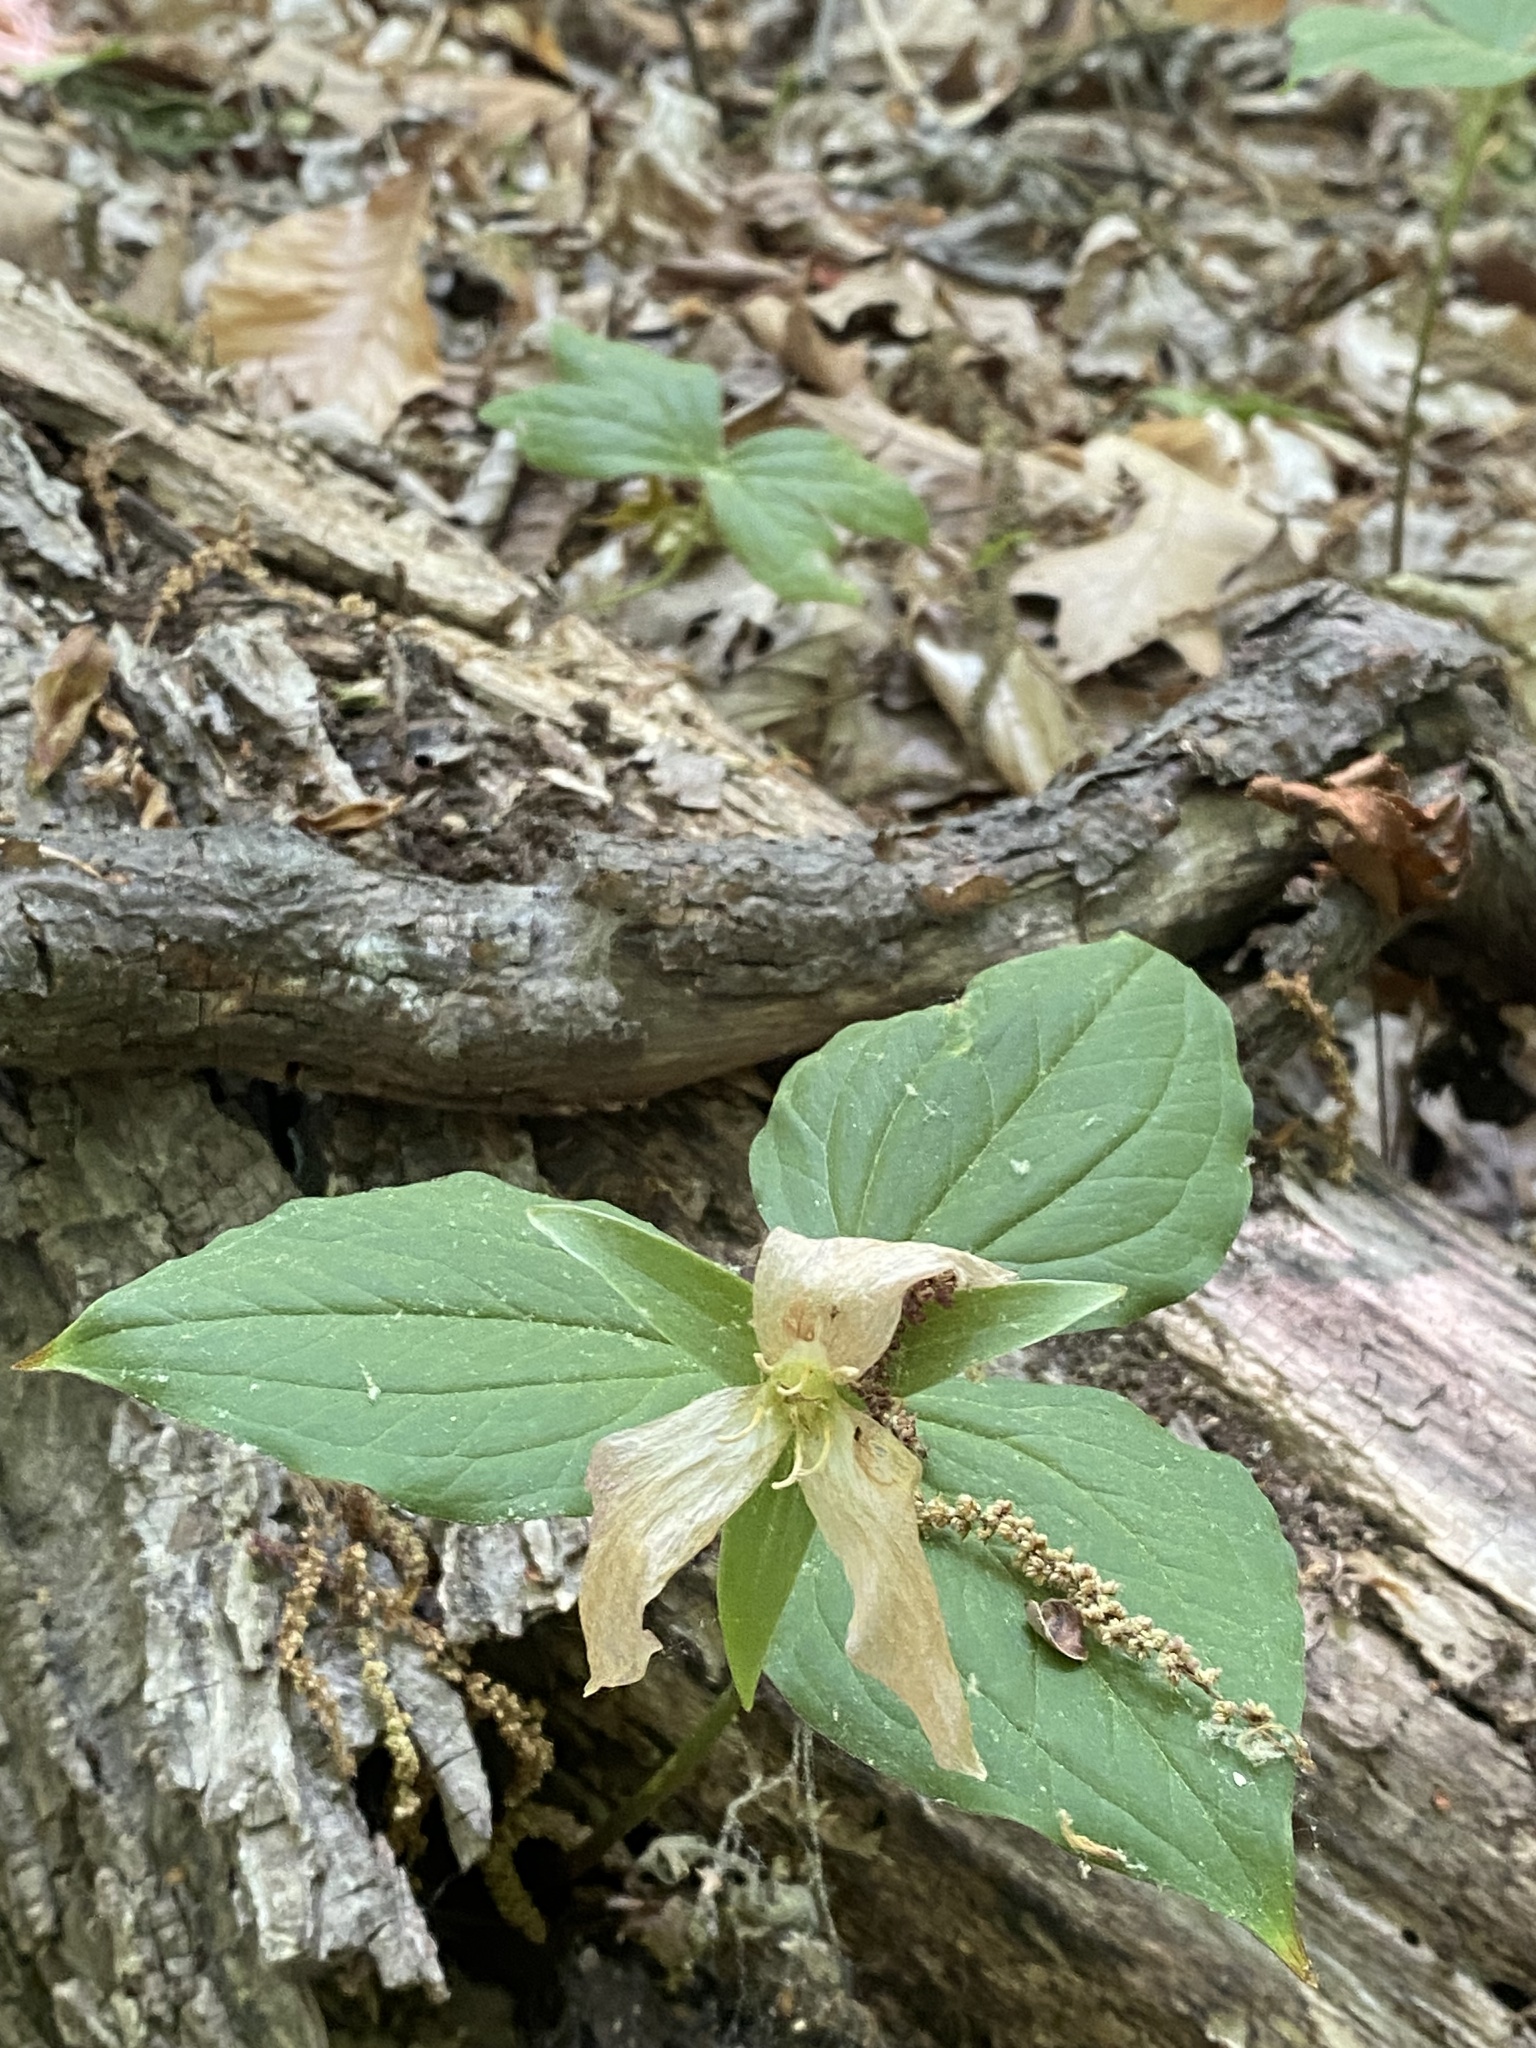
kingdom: Plantae
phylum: Tracheophyta
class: Liliopsida
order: Liliales
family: Melanthiaceae
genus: Trillium
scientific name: Trillium grandiflorum
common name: Great white trillium
